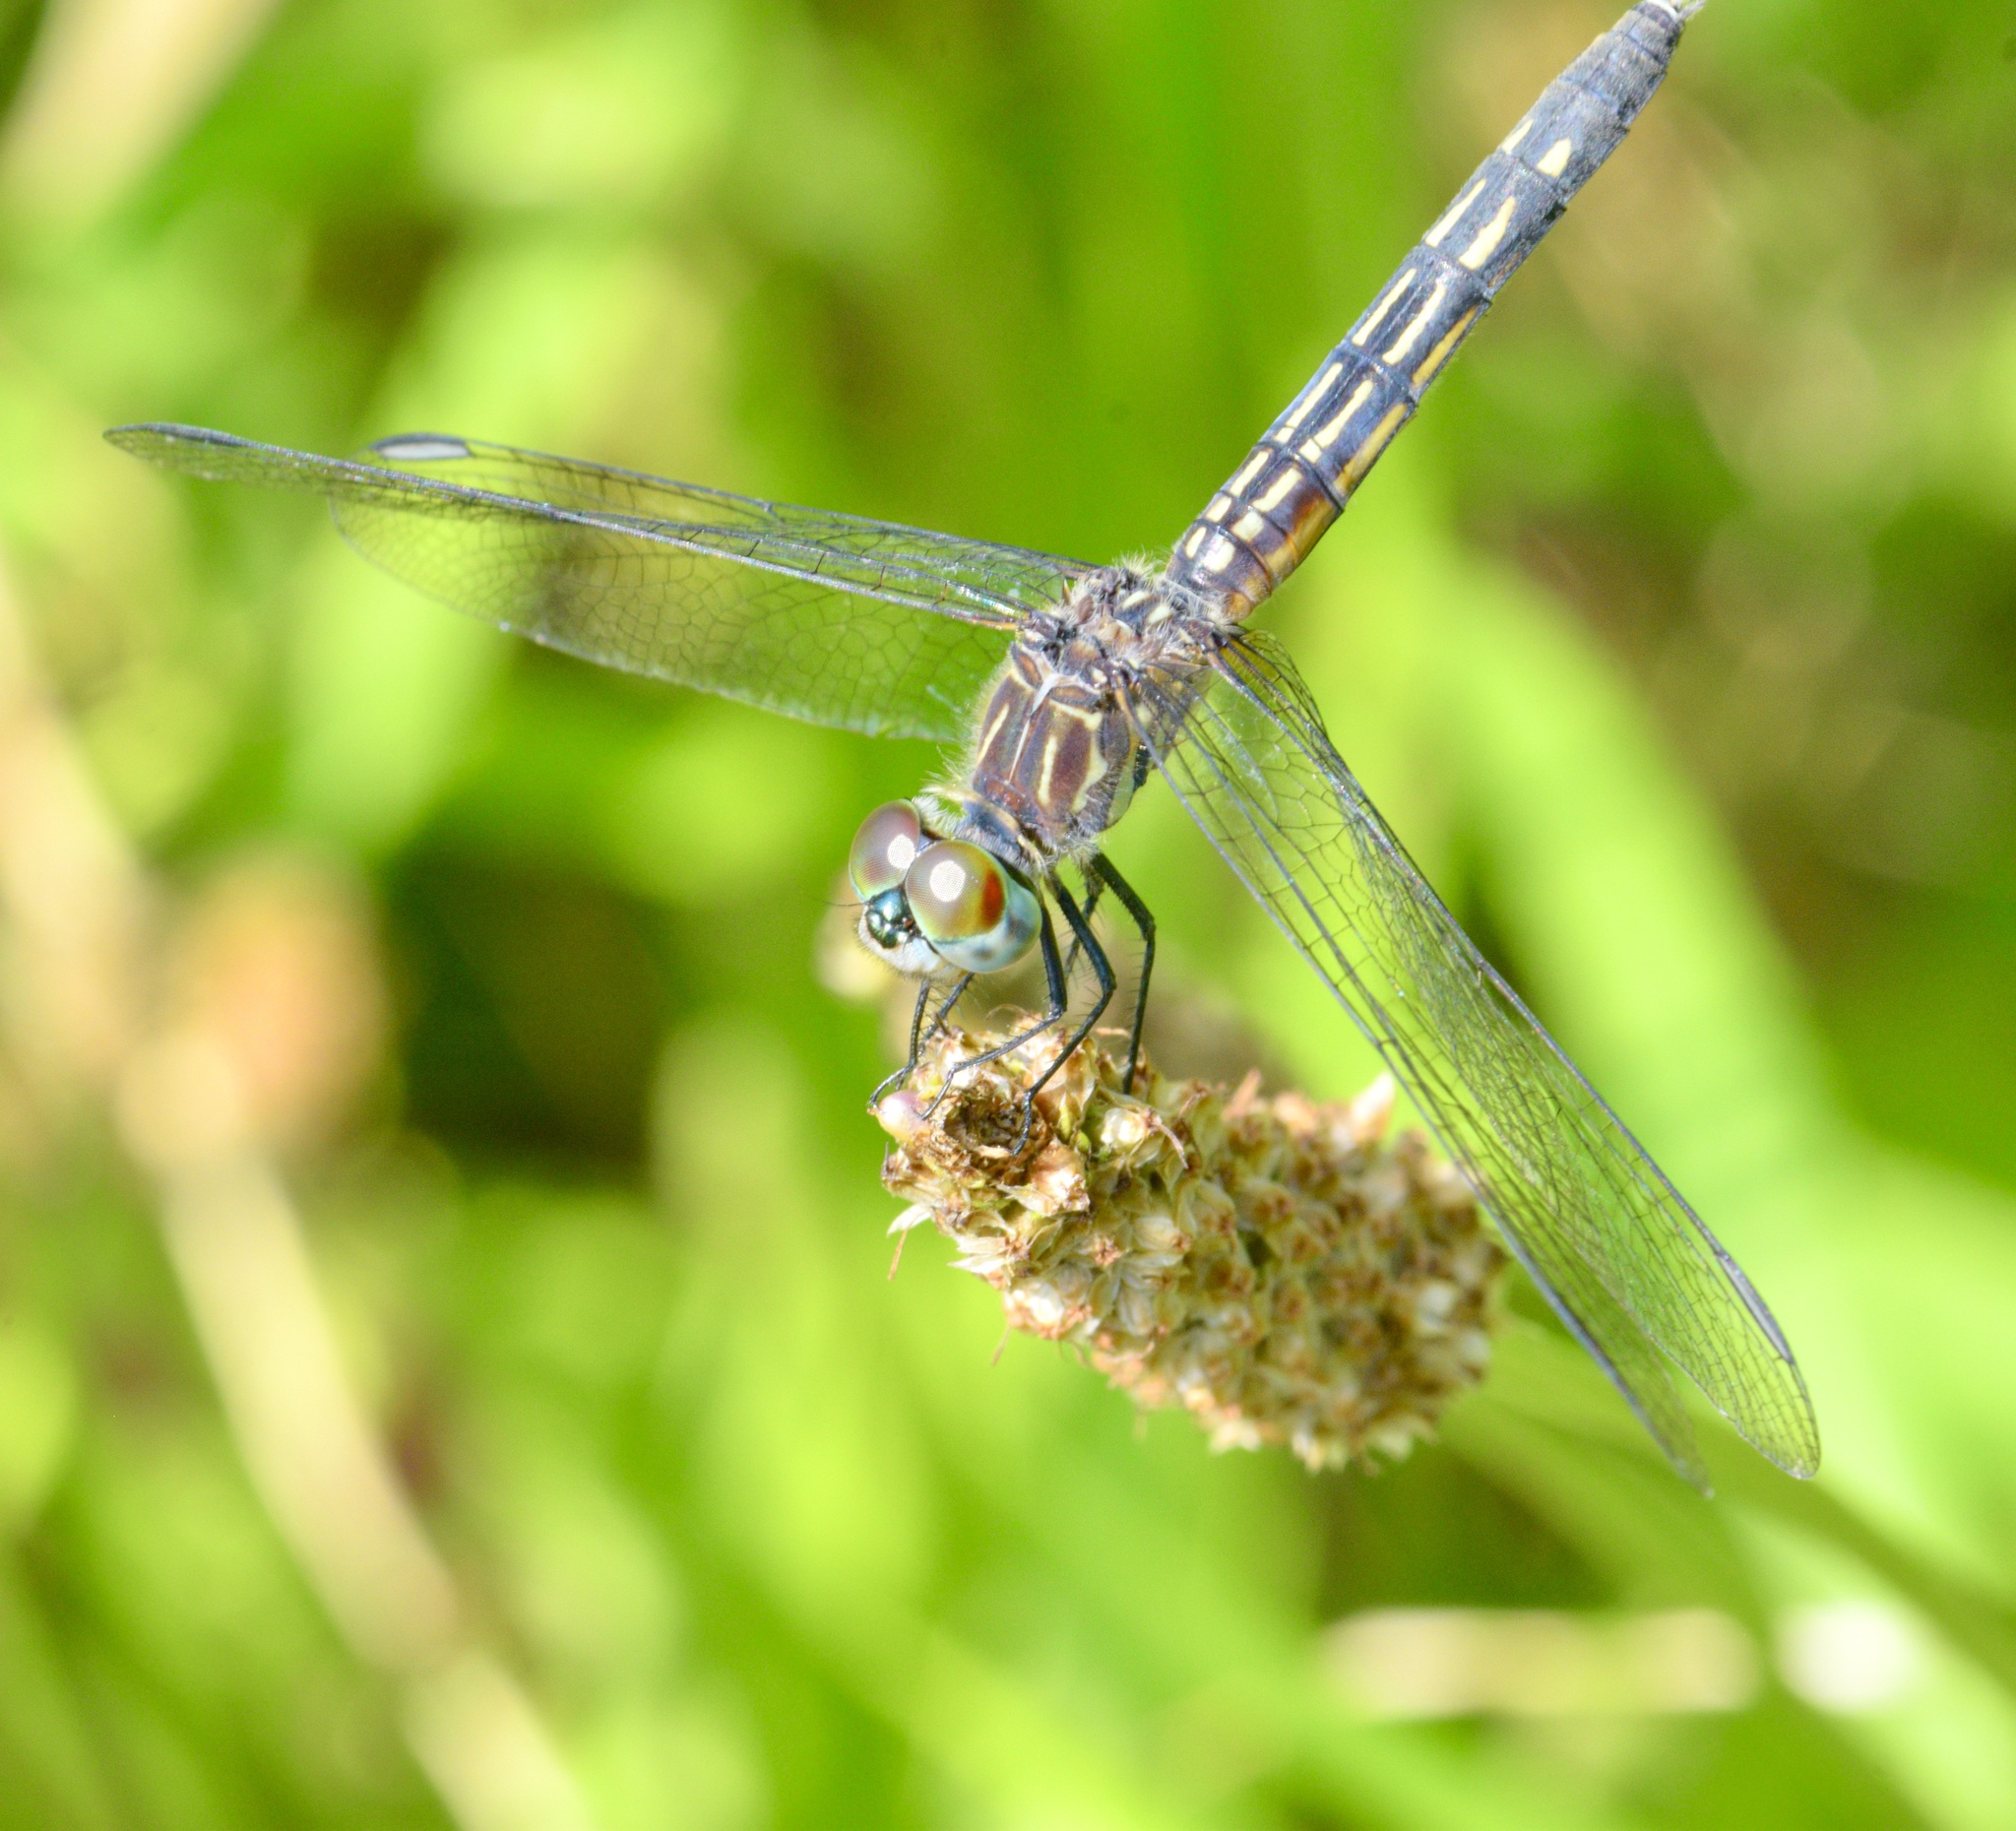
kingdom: Animalia
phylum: Arthropoda
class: Insecta
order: Odonata
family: Libellulidae
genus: Pachydiplax
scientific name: Pachydiplax longipennis
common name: Blue dasher
